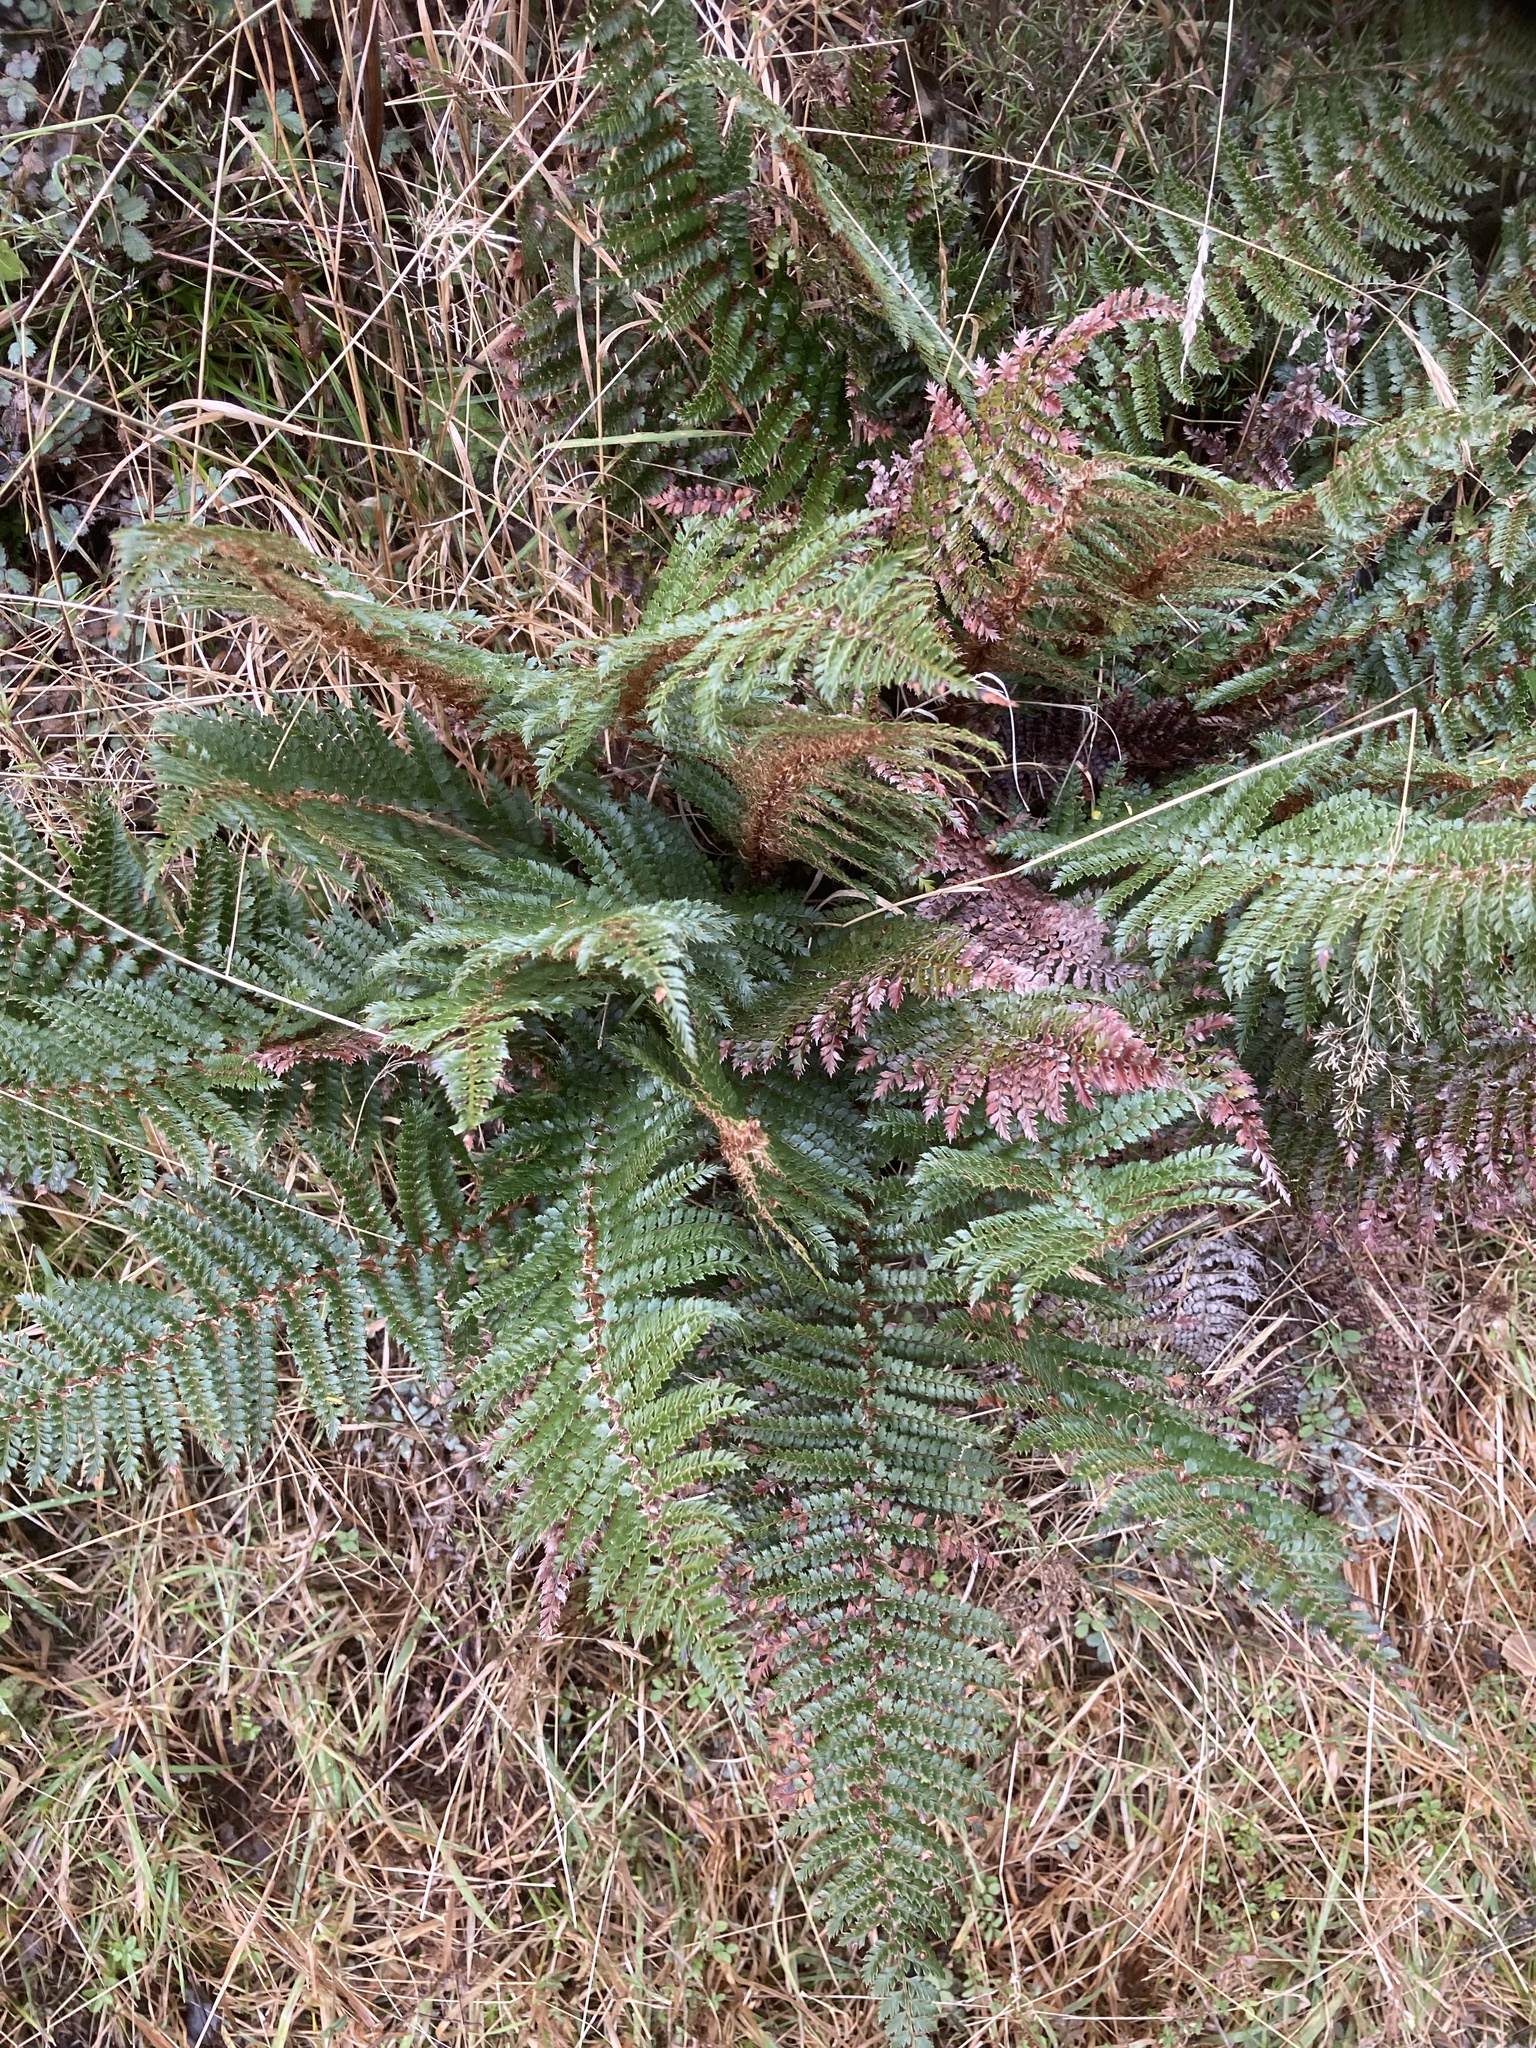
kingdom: Plantae
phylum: Tracheophyta
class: Polypodiopsida
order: Polypodiales
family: Dryopteridaceae
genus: Polystichum
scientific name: Polystichum vestitum
